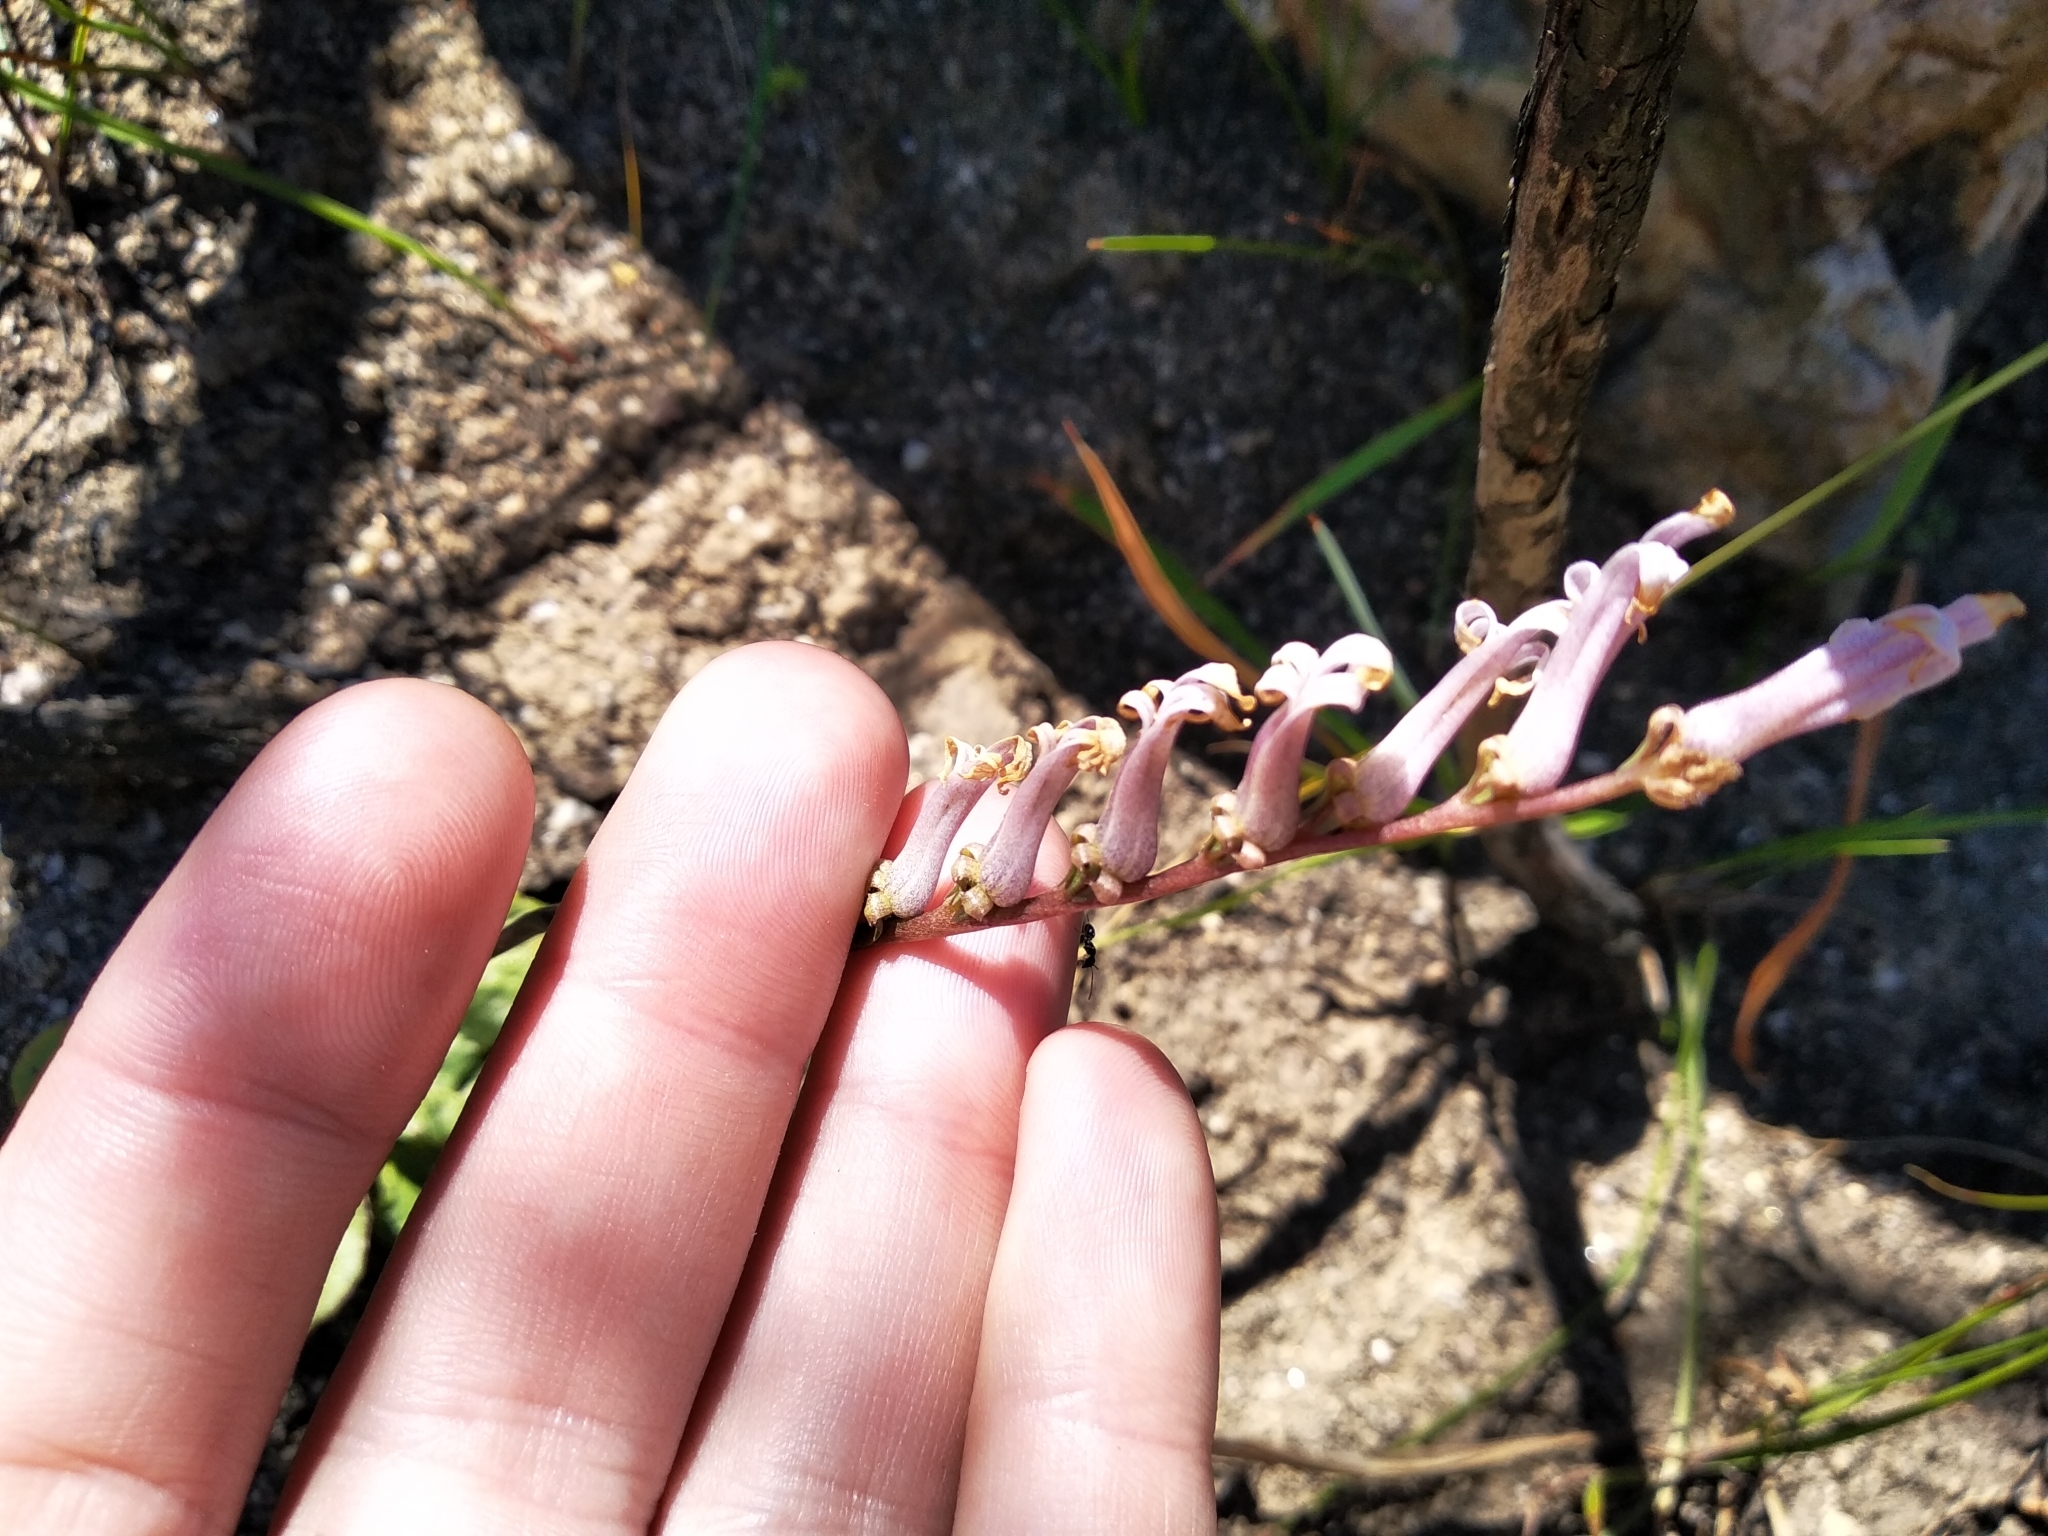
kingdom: Plantae
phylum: Tracheophyta
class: Magnoliopsida
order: Asterales
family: Campanulaceae
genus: Cyphia
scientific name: Cyphia phyteuma
